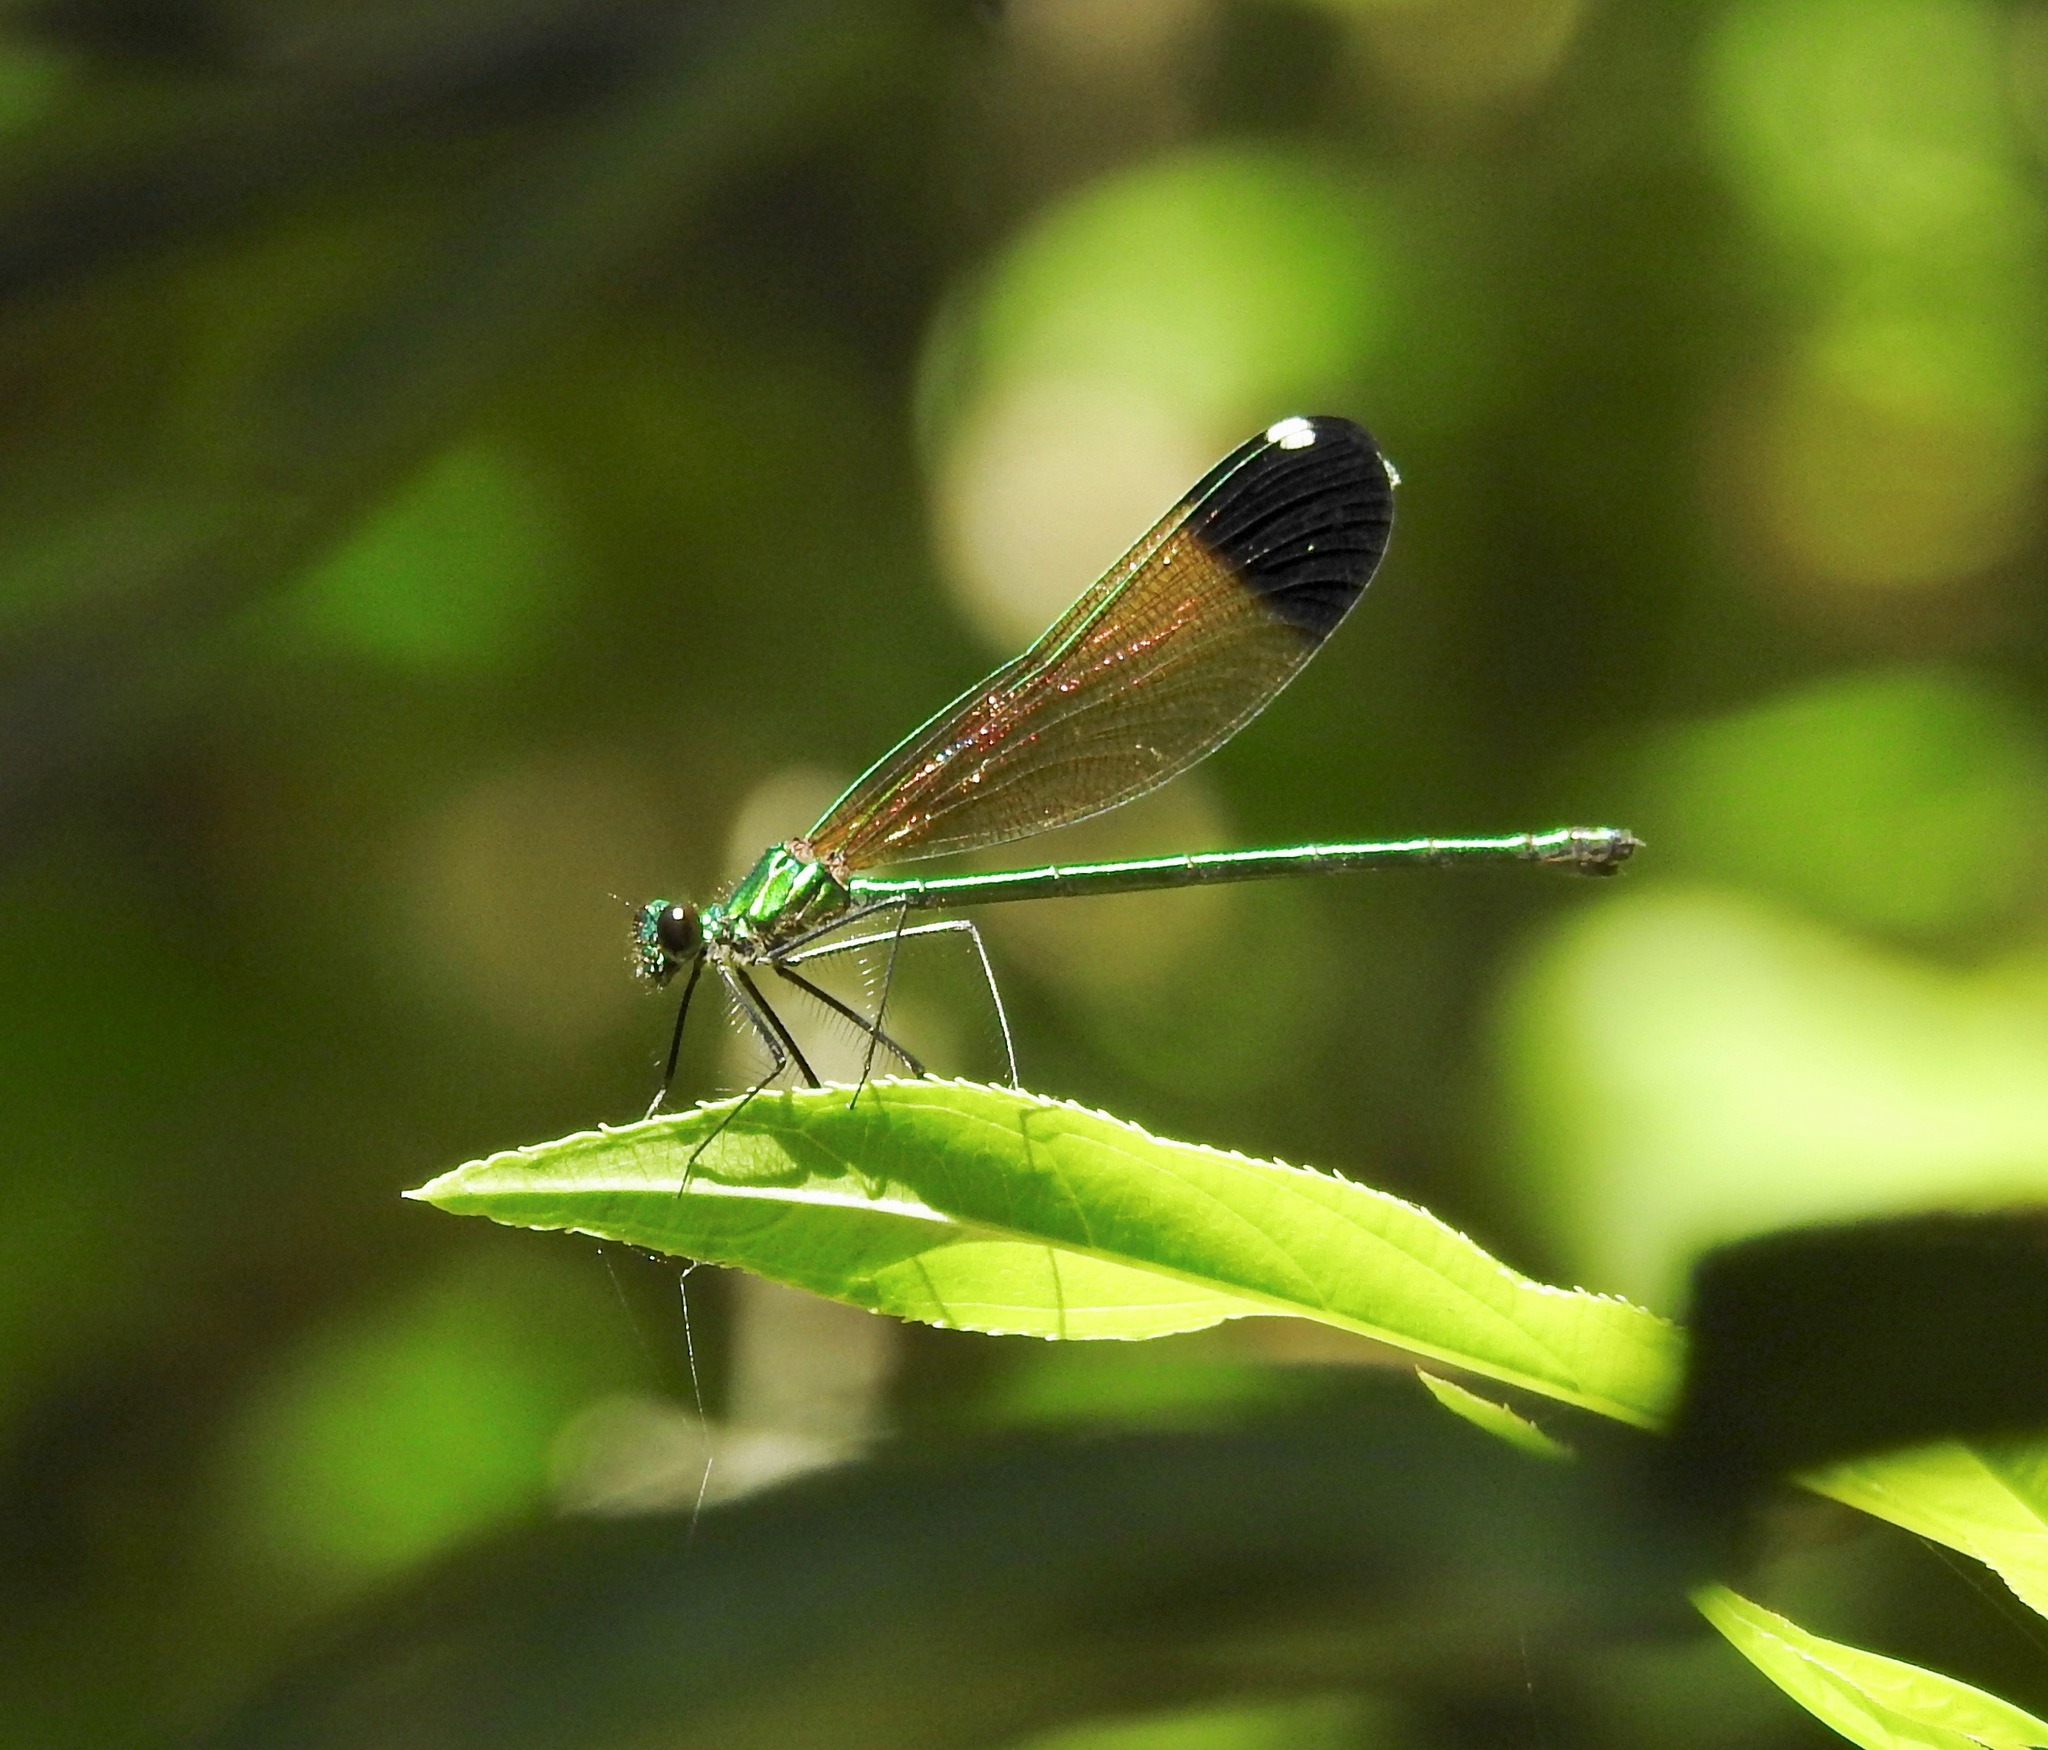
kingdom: Animalia
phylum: Arthropoda
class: Insecta
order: Odonata
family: Calopterygidae
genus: Calopteryx
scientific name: Calopteryx dimidiata
